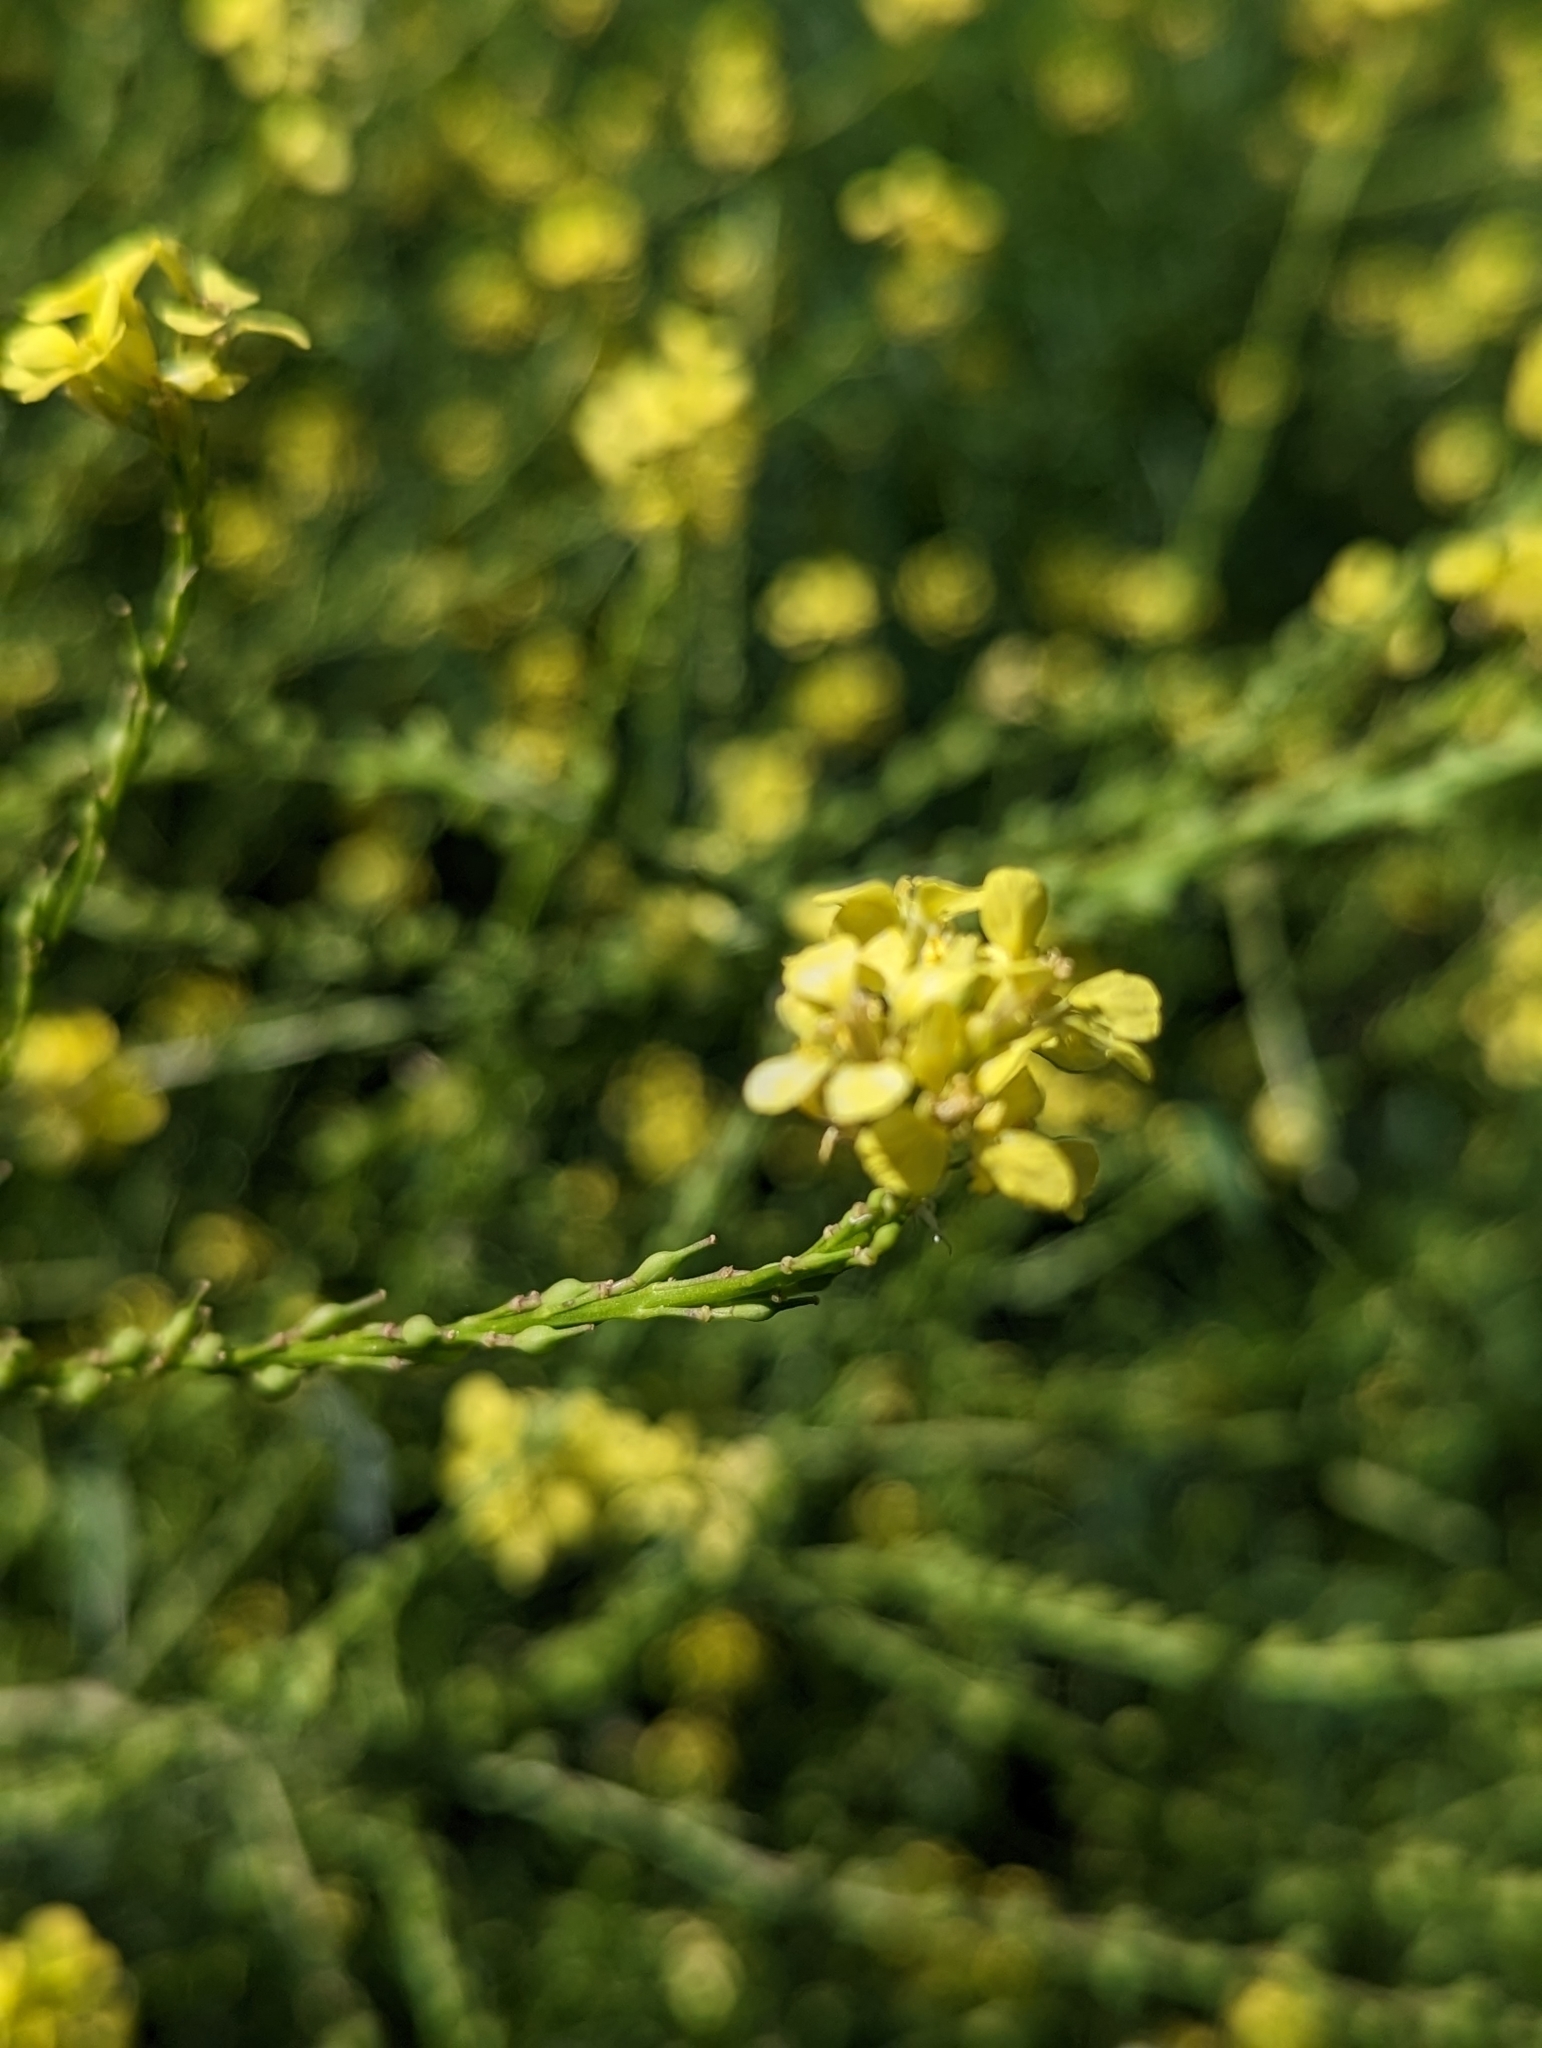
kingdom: Plantae
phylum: Tracheophyta
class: Magnoliopsida
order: Brassicales
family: Brassicaceae
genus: Rapistrum
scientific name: Rapistrum rugosum
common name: Annual bastardcabbage
